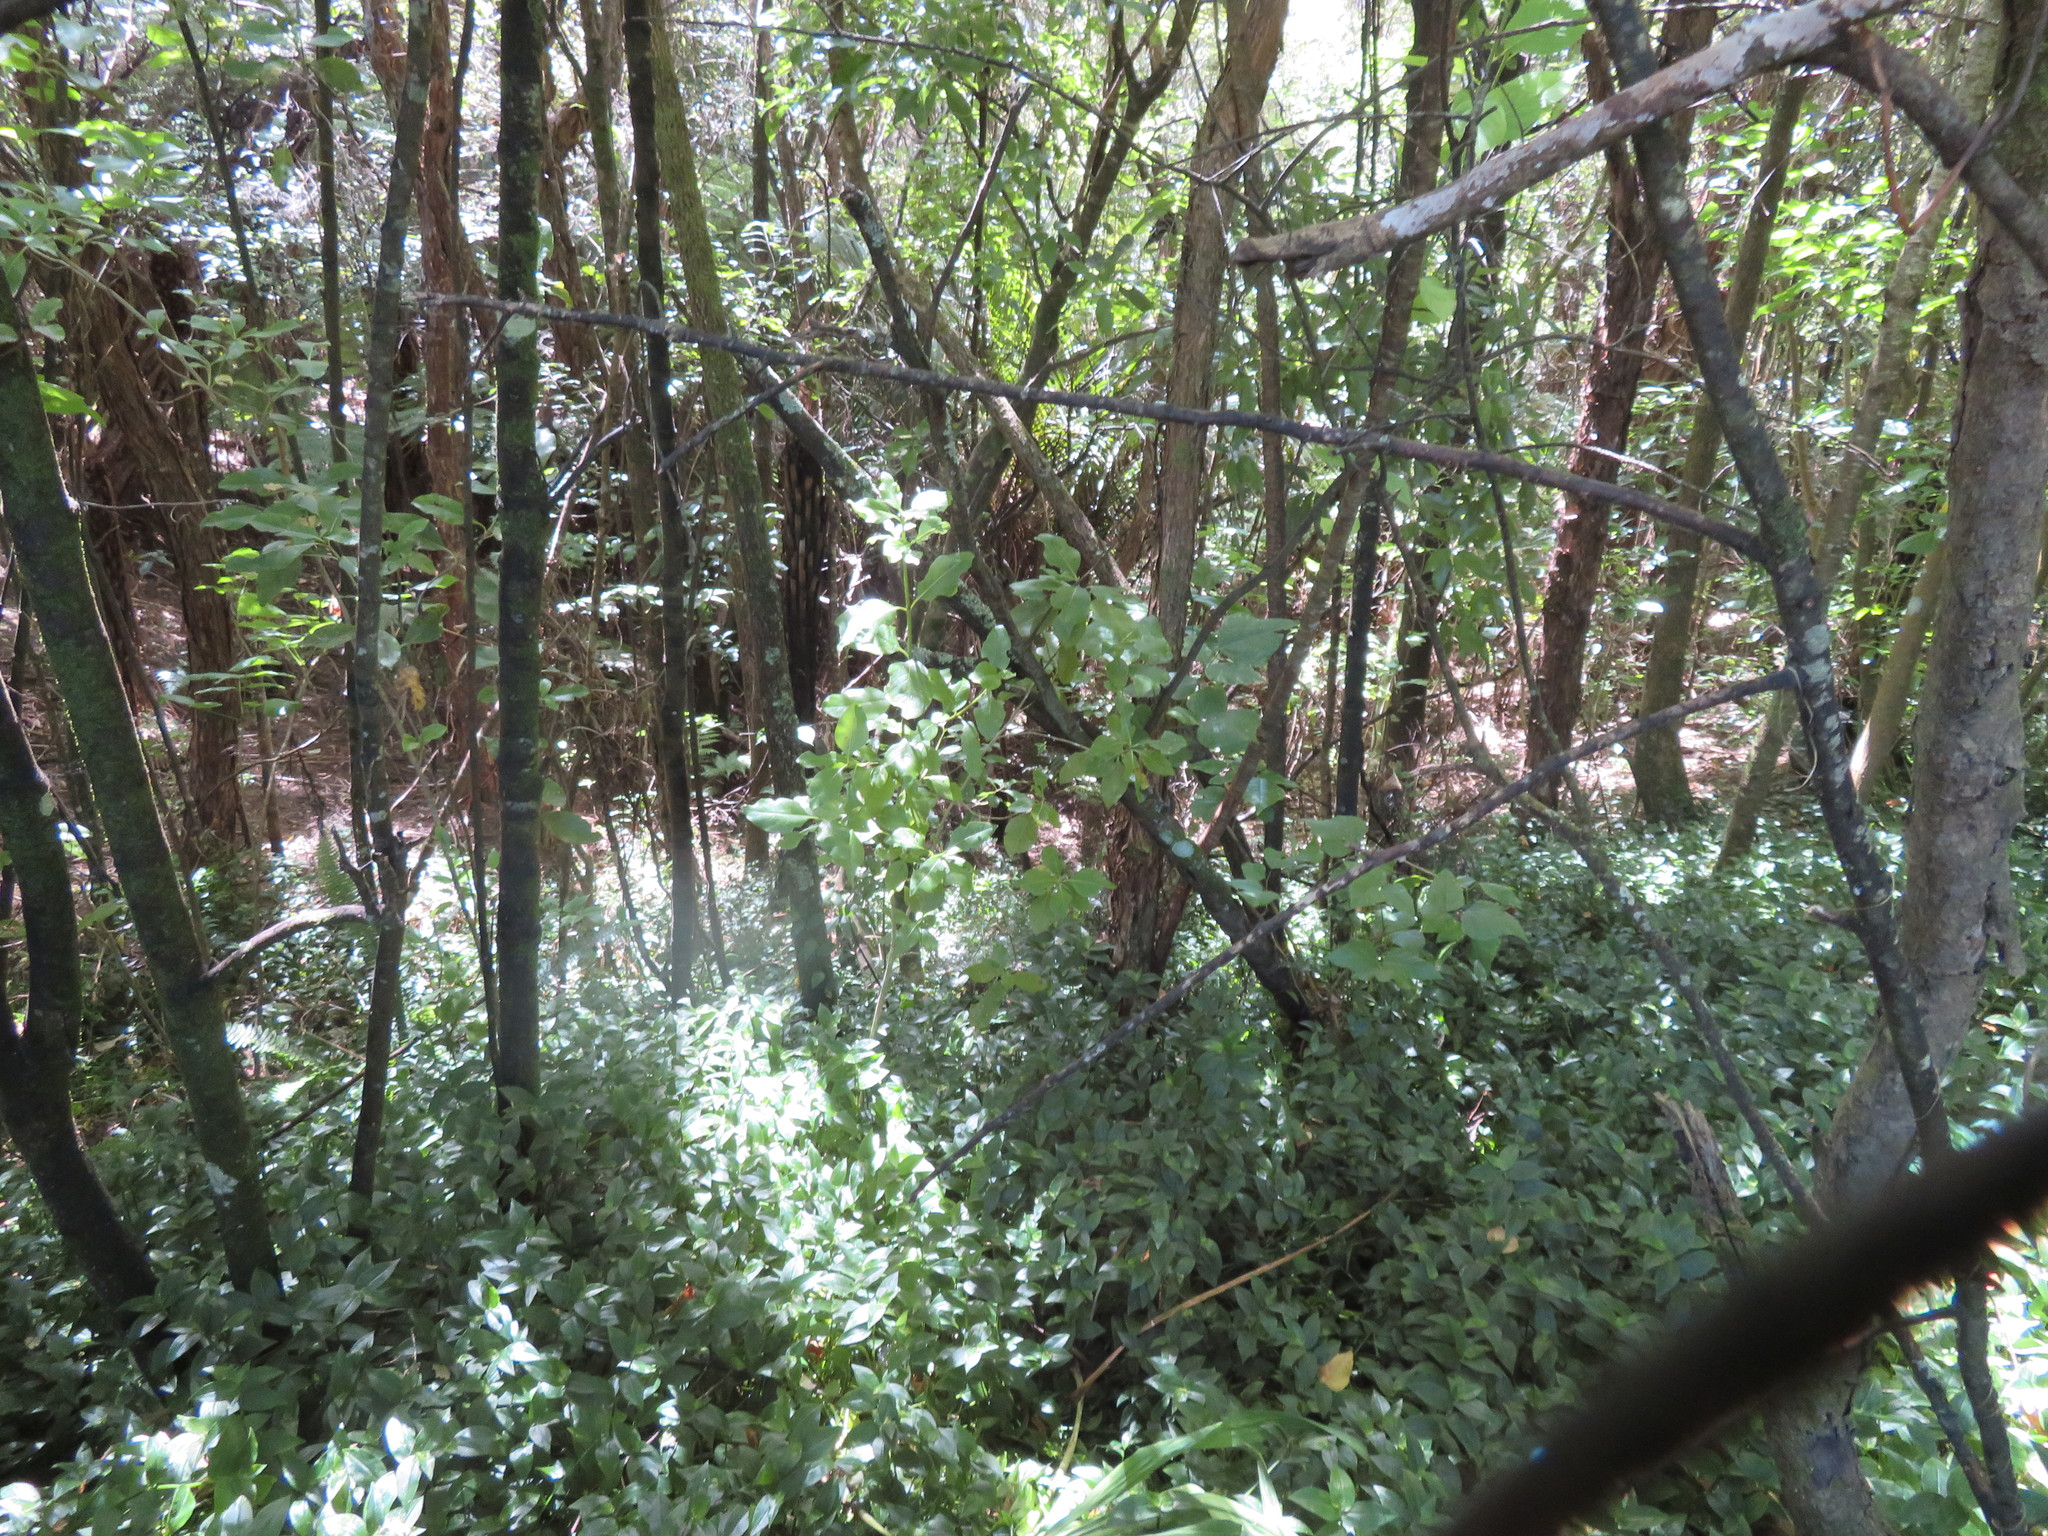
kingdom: Plantae
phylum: Tracheophyta
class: Liliopsida
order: Commelinales
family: Commelinaceae
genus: Tradescantia
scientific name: Tradescantia fluminensis
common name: Wandering-jew
